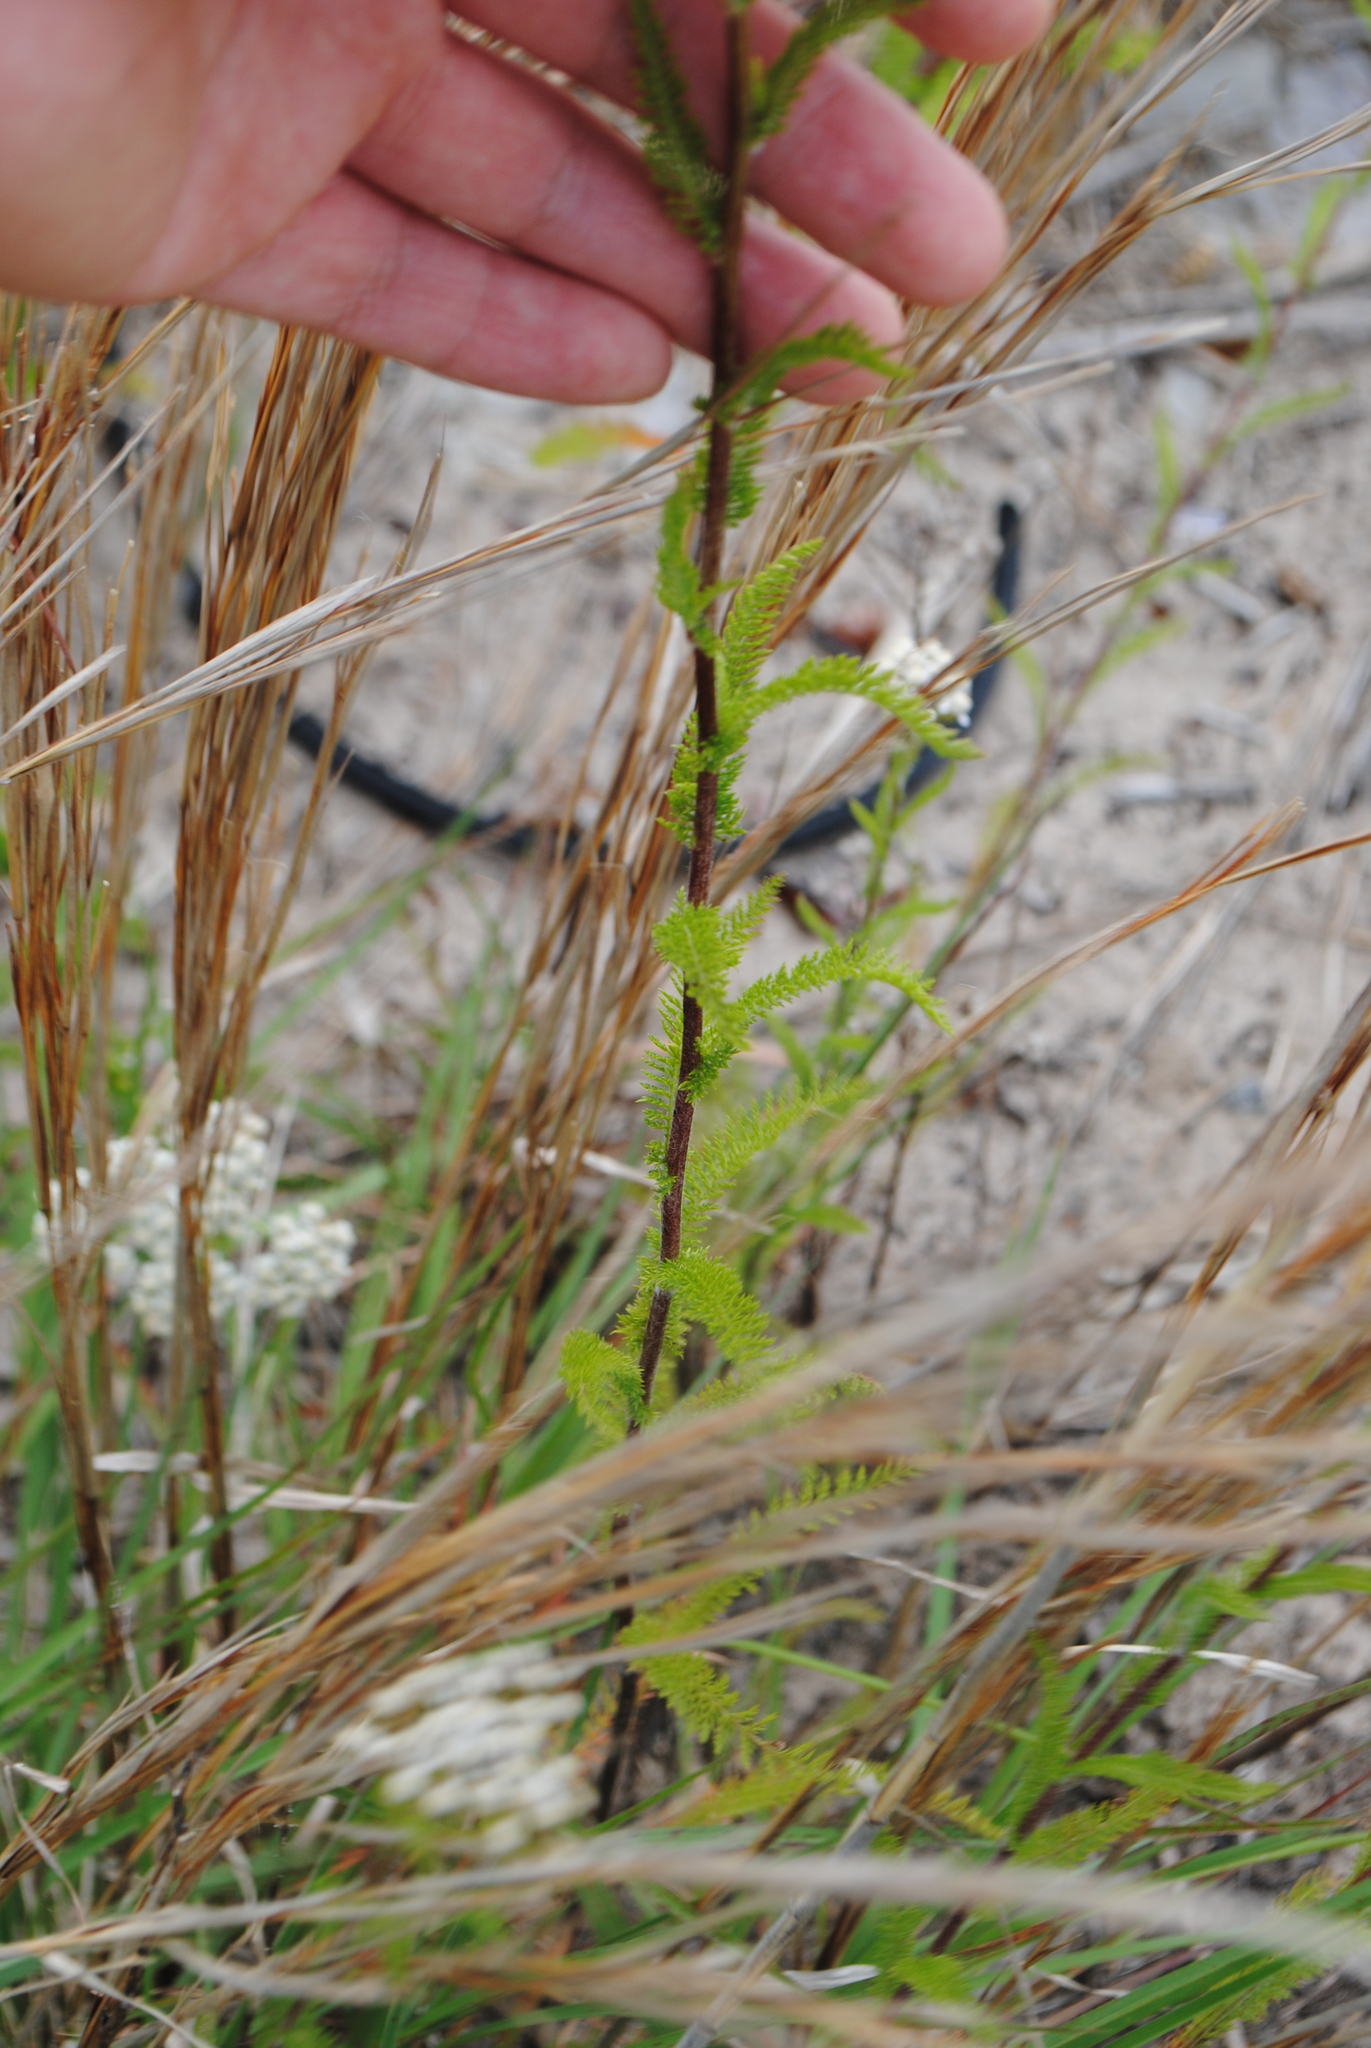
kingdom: Plantae
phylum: Tracheophyta
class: Magnoliopsida
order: Asterales
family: Asteraceae
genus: Achillea
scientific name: Achillea millefolium
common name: Yarrow
